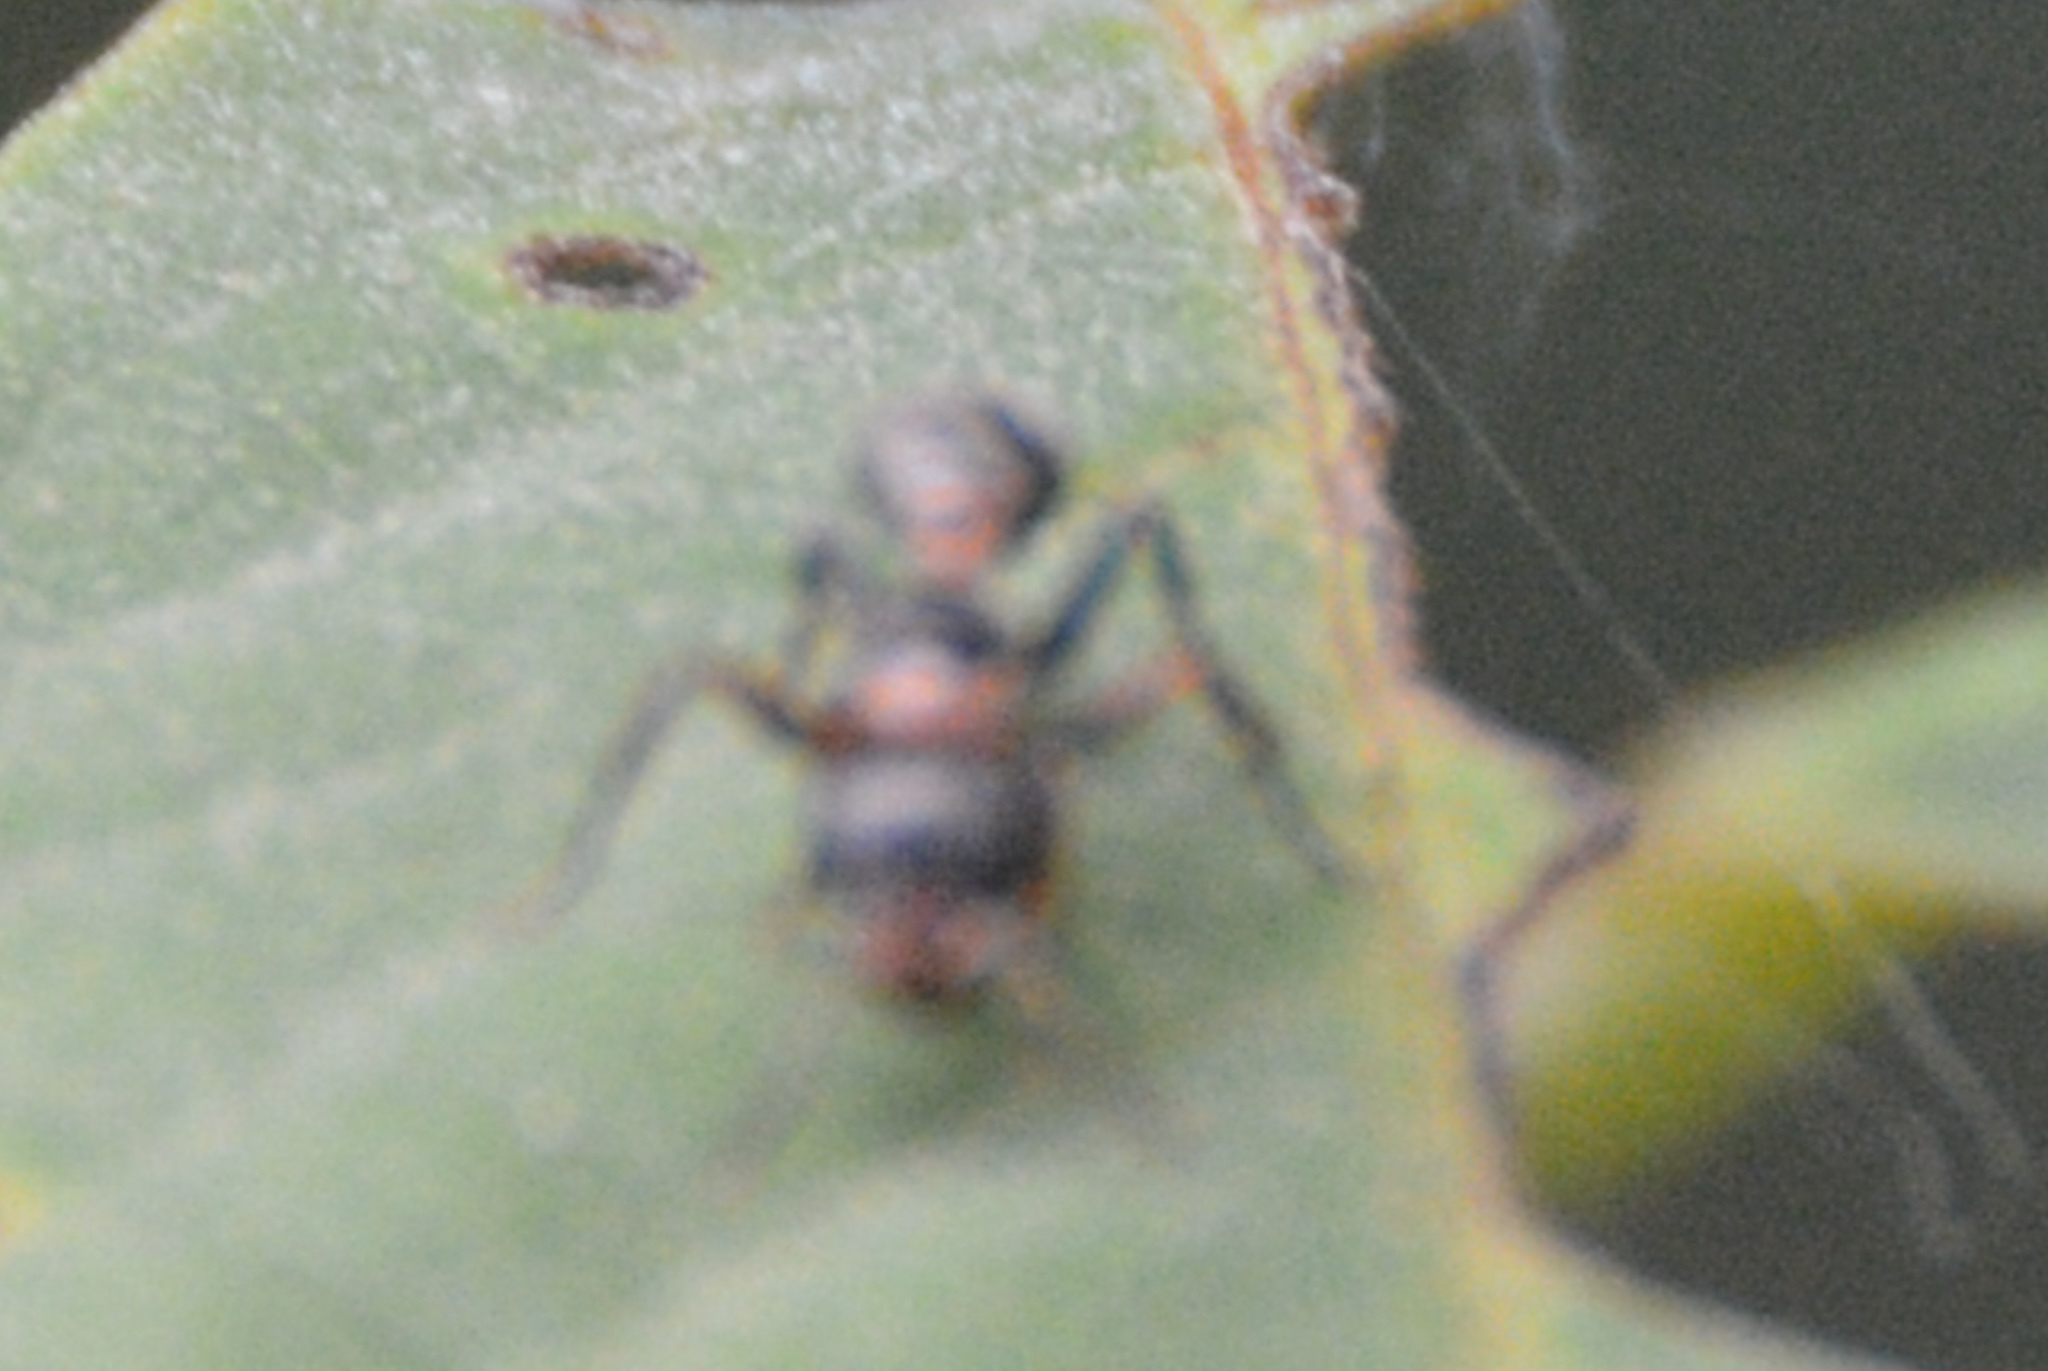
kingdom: Animalia
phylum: Arthropoda
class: Insecta
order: Hymenoptera
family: Formicidae
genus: Pseudomyrmex
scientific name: Pseudomyrmex gracilis
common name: Graceful twig ant
